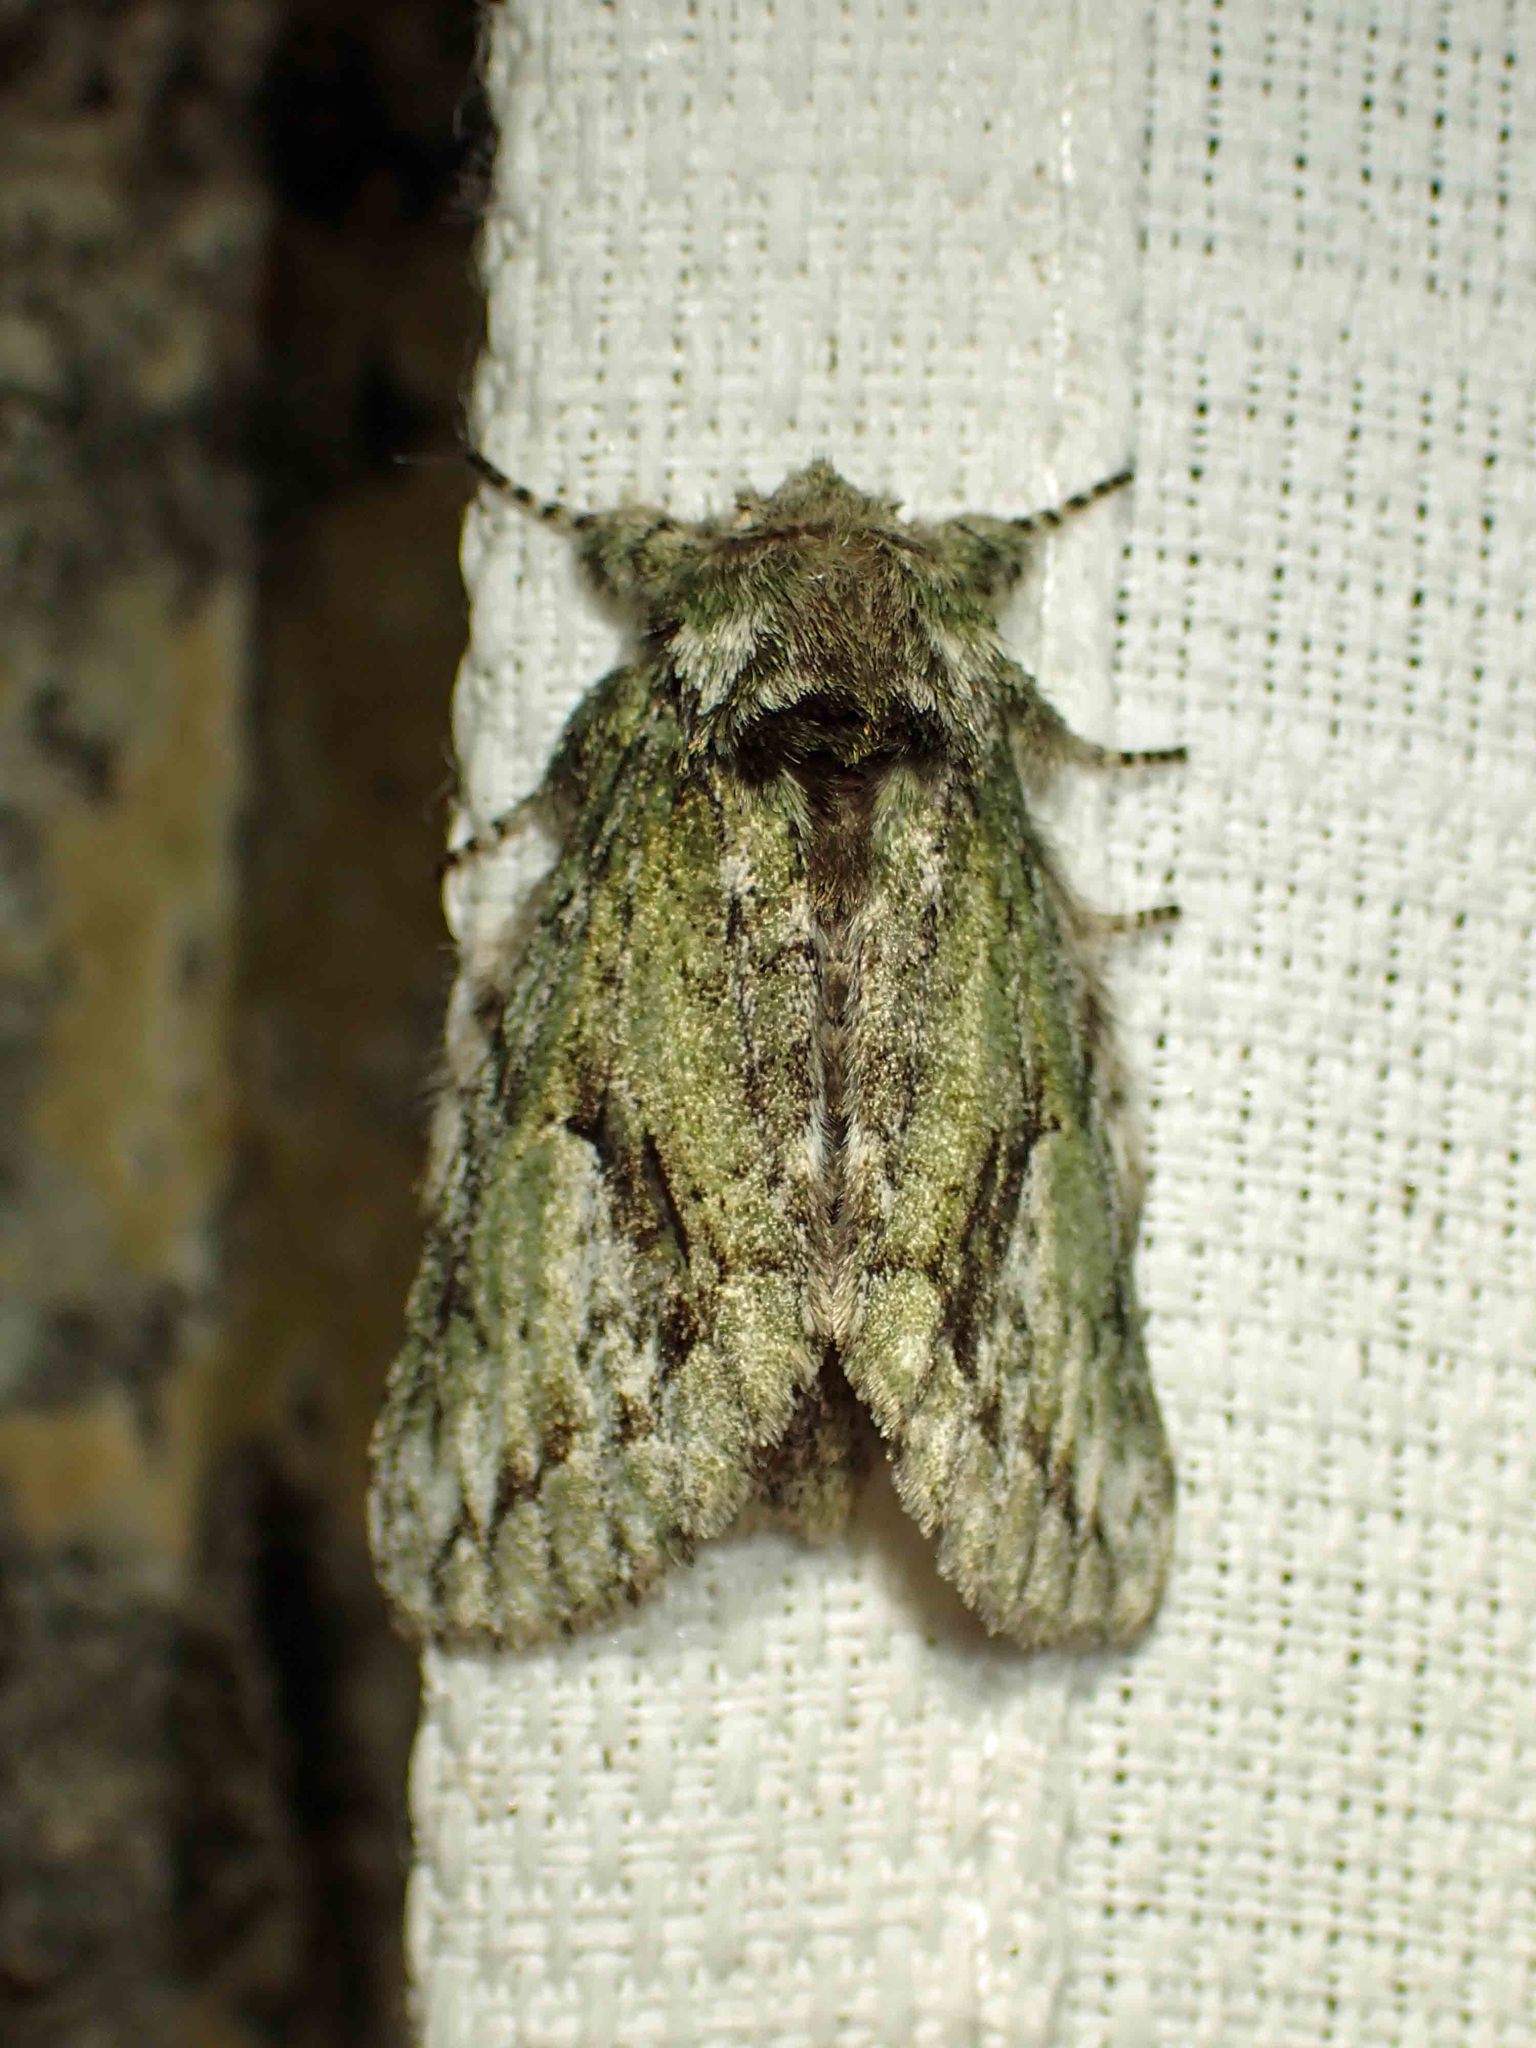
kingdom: Animalia
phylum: Arthropoda
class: Insecta
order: Lepidoptera
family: Notodontidae
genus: Heterocampa
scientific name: Heterocampa
